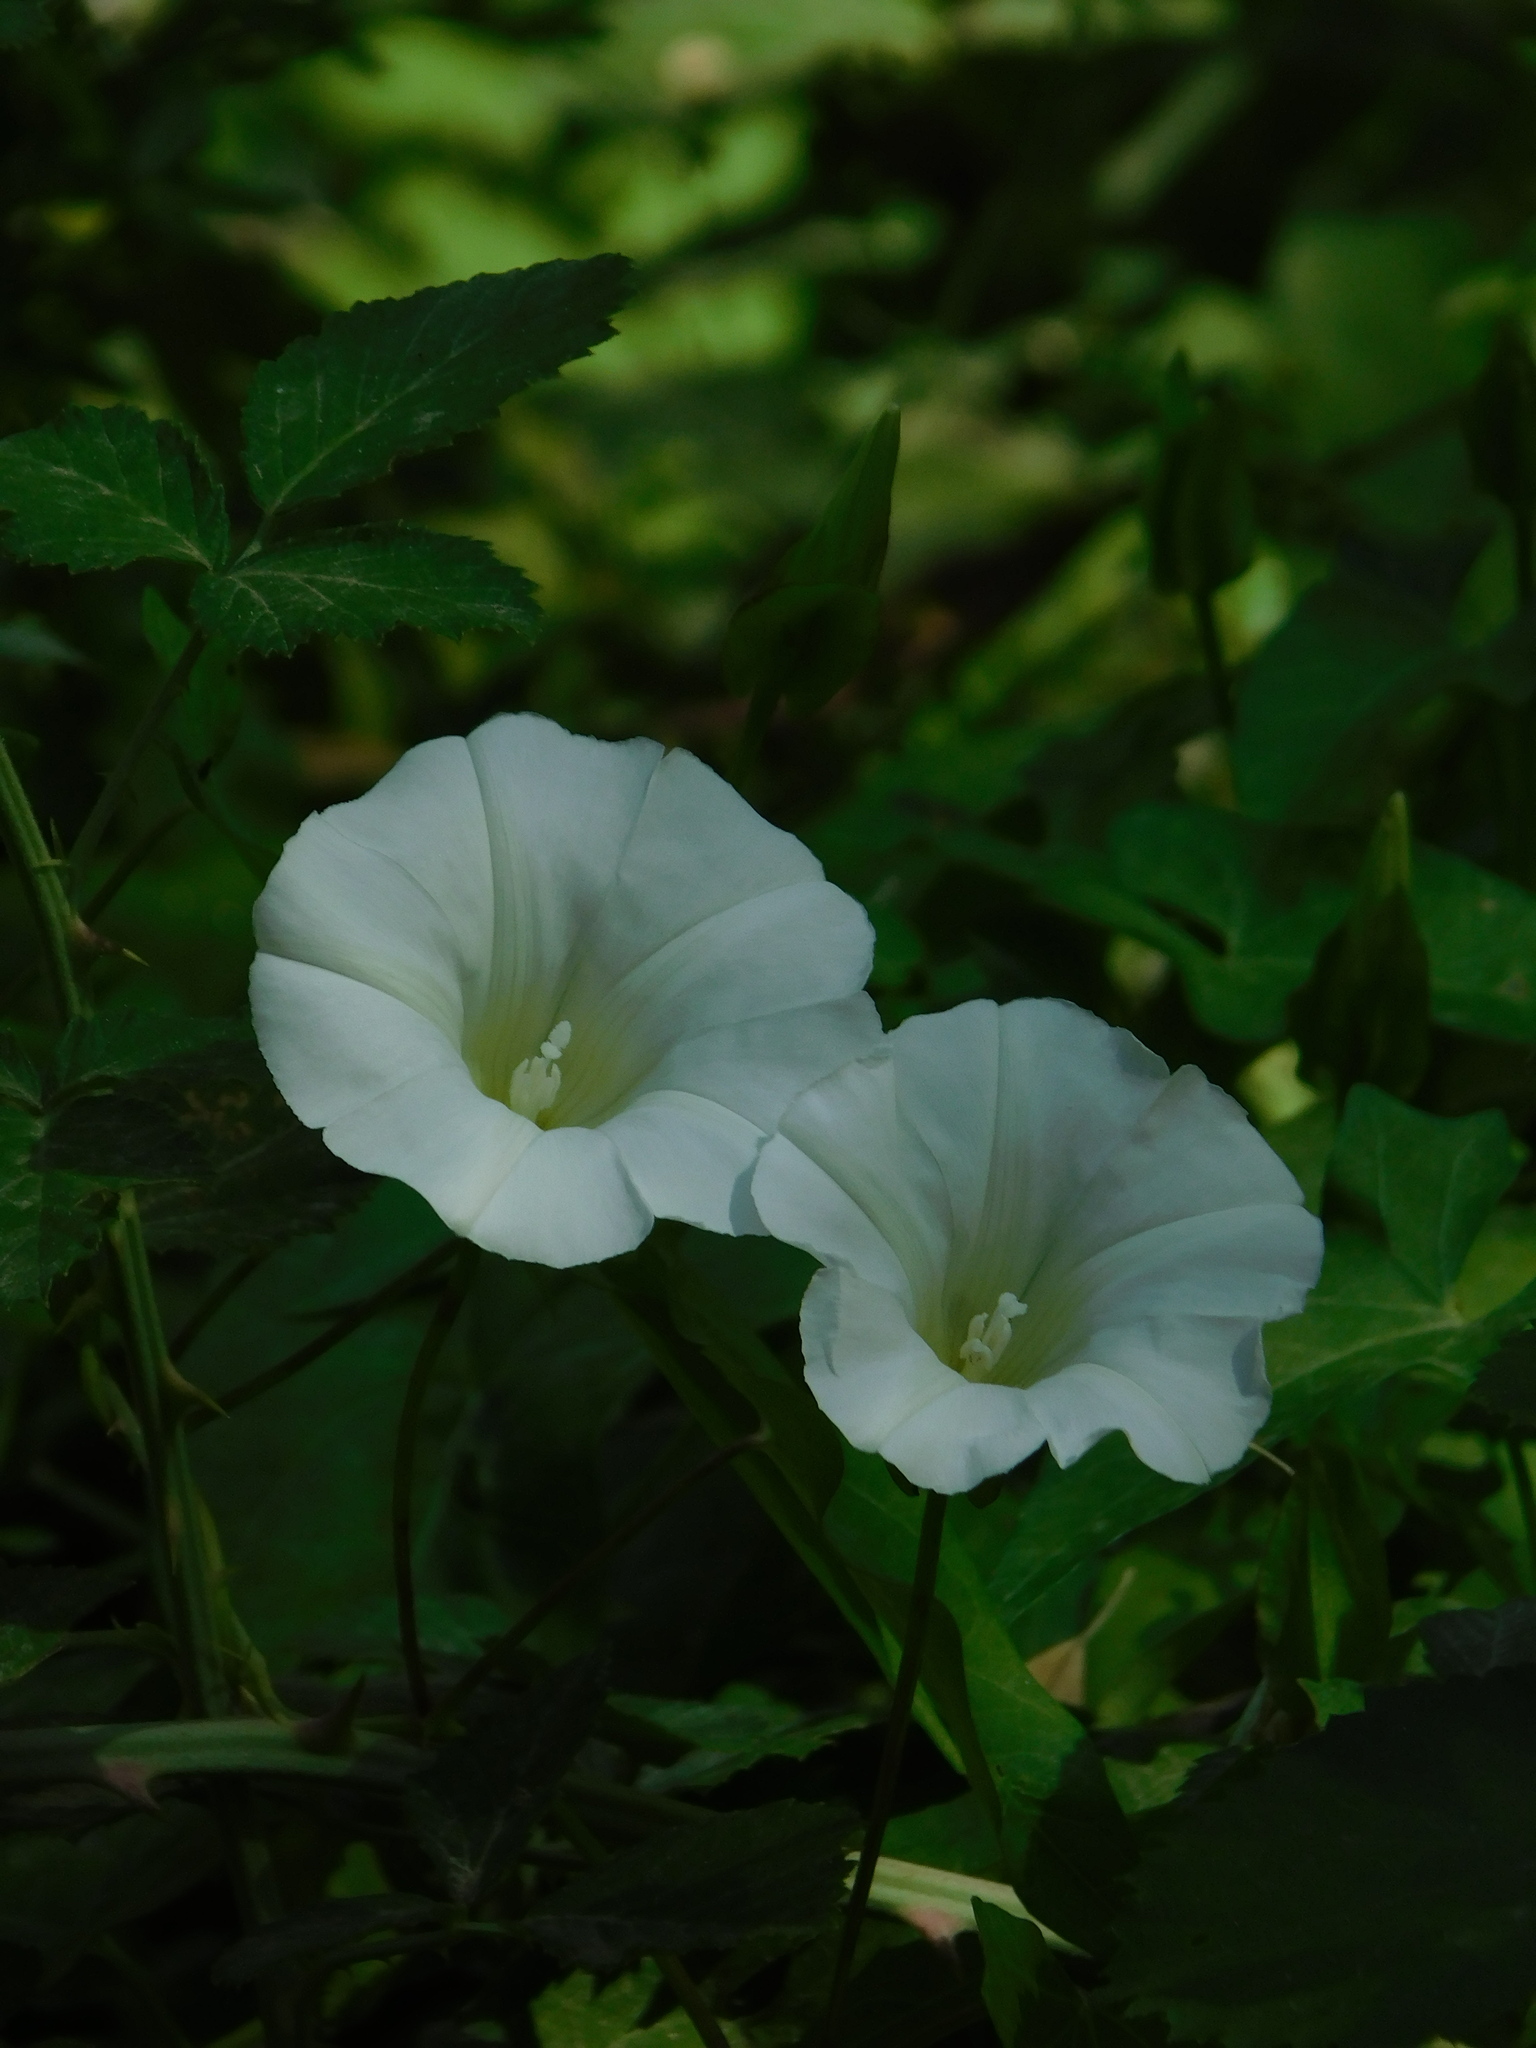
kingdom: Plantae
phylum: Tracheophyta
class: Magnoliopsida
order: Solanales
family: Convolvulaceae
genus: Calystegia
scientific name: Calystegia sepium
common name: Hedge bindweed
